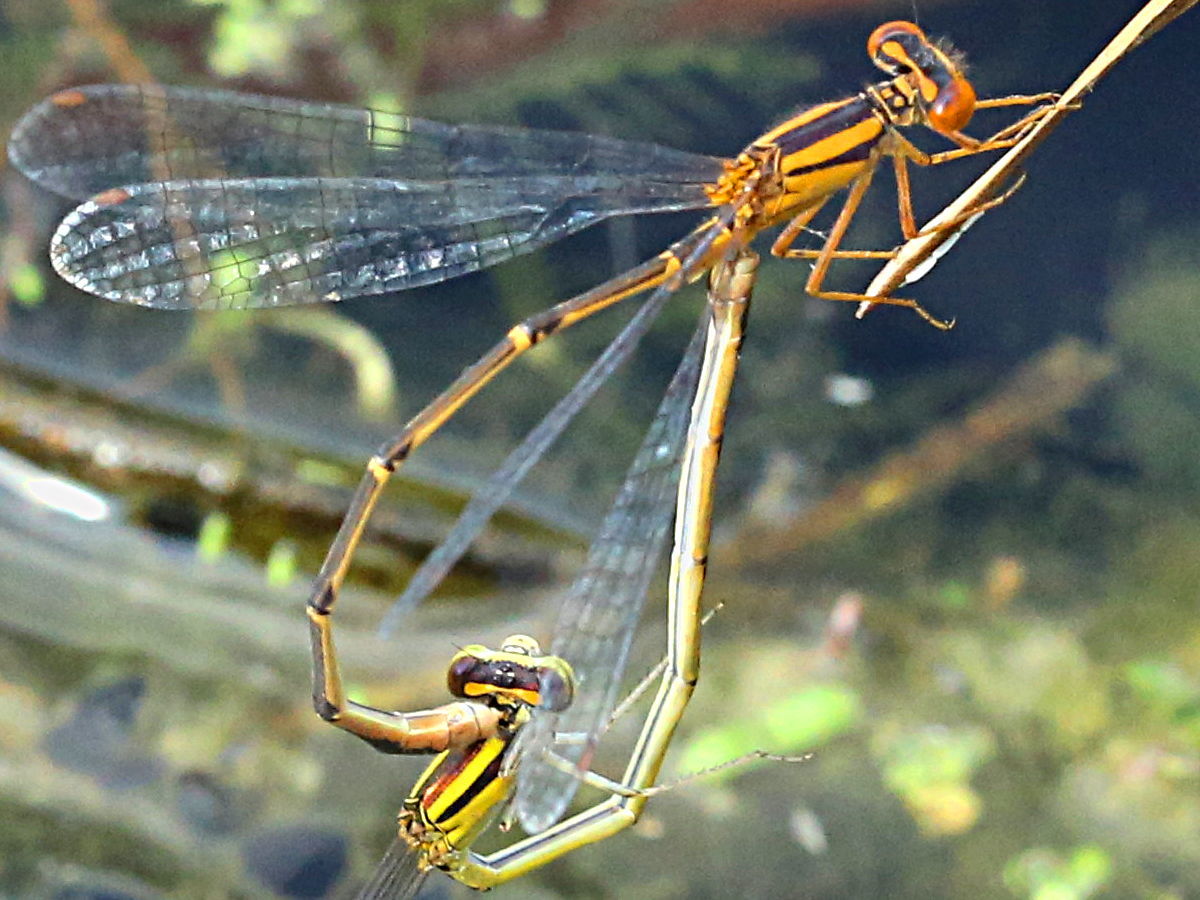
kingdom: Animalia
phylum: Arthropoda
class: Insecta
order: Odonata
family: Coenagrionidae
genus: Enallagma
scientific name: Enallagma signatum
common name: Orange bluet
